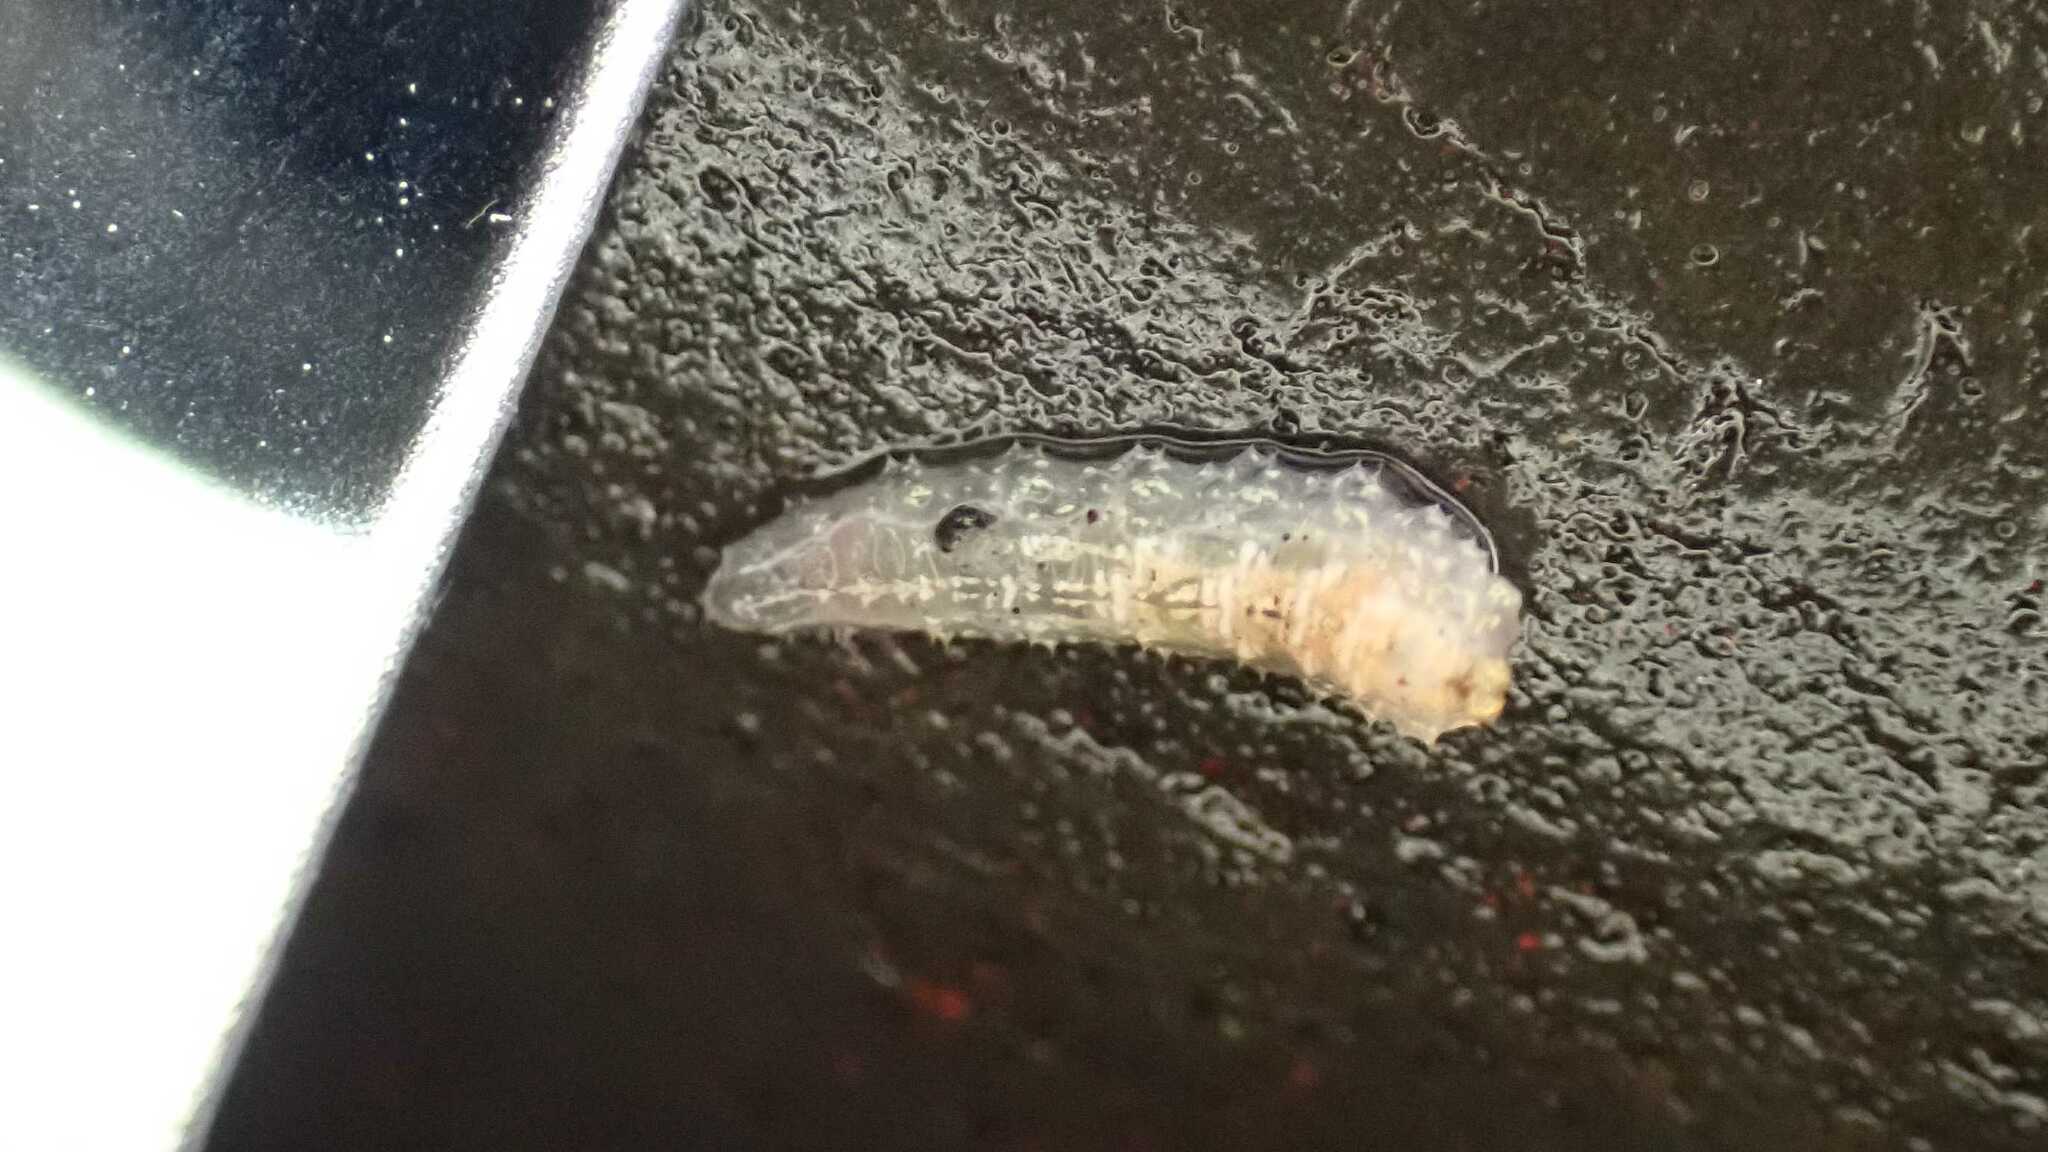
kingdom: Animalia
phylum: Arthropoda
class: Insecta
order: Diptera
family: Syrphidae
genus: Syrphus
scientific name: Syrphus
